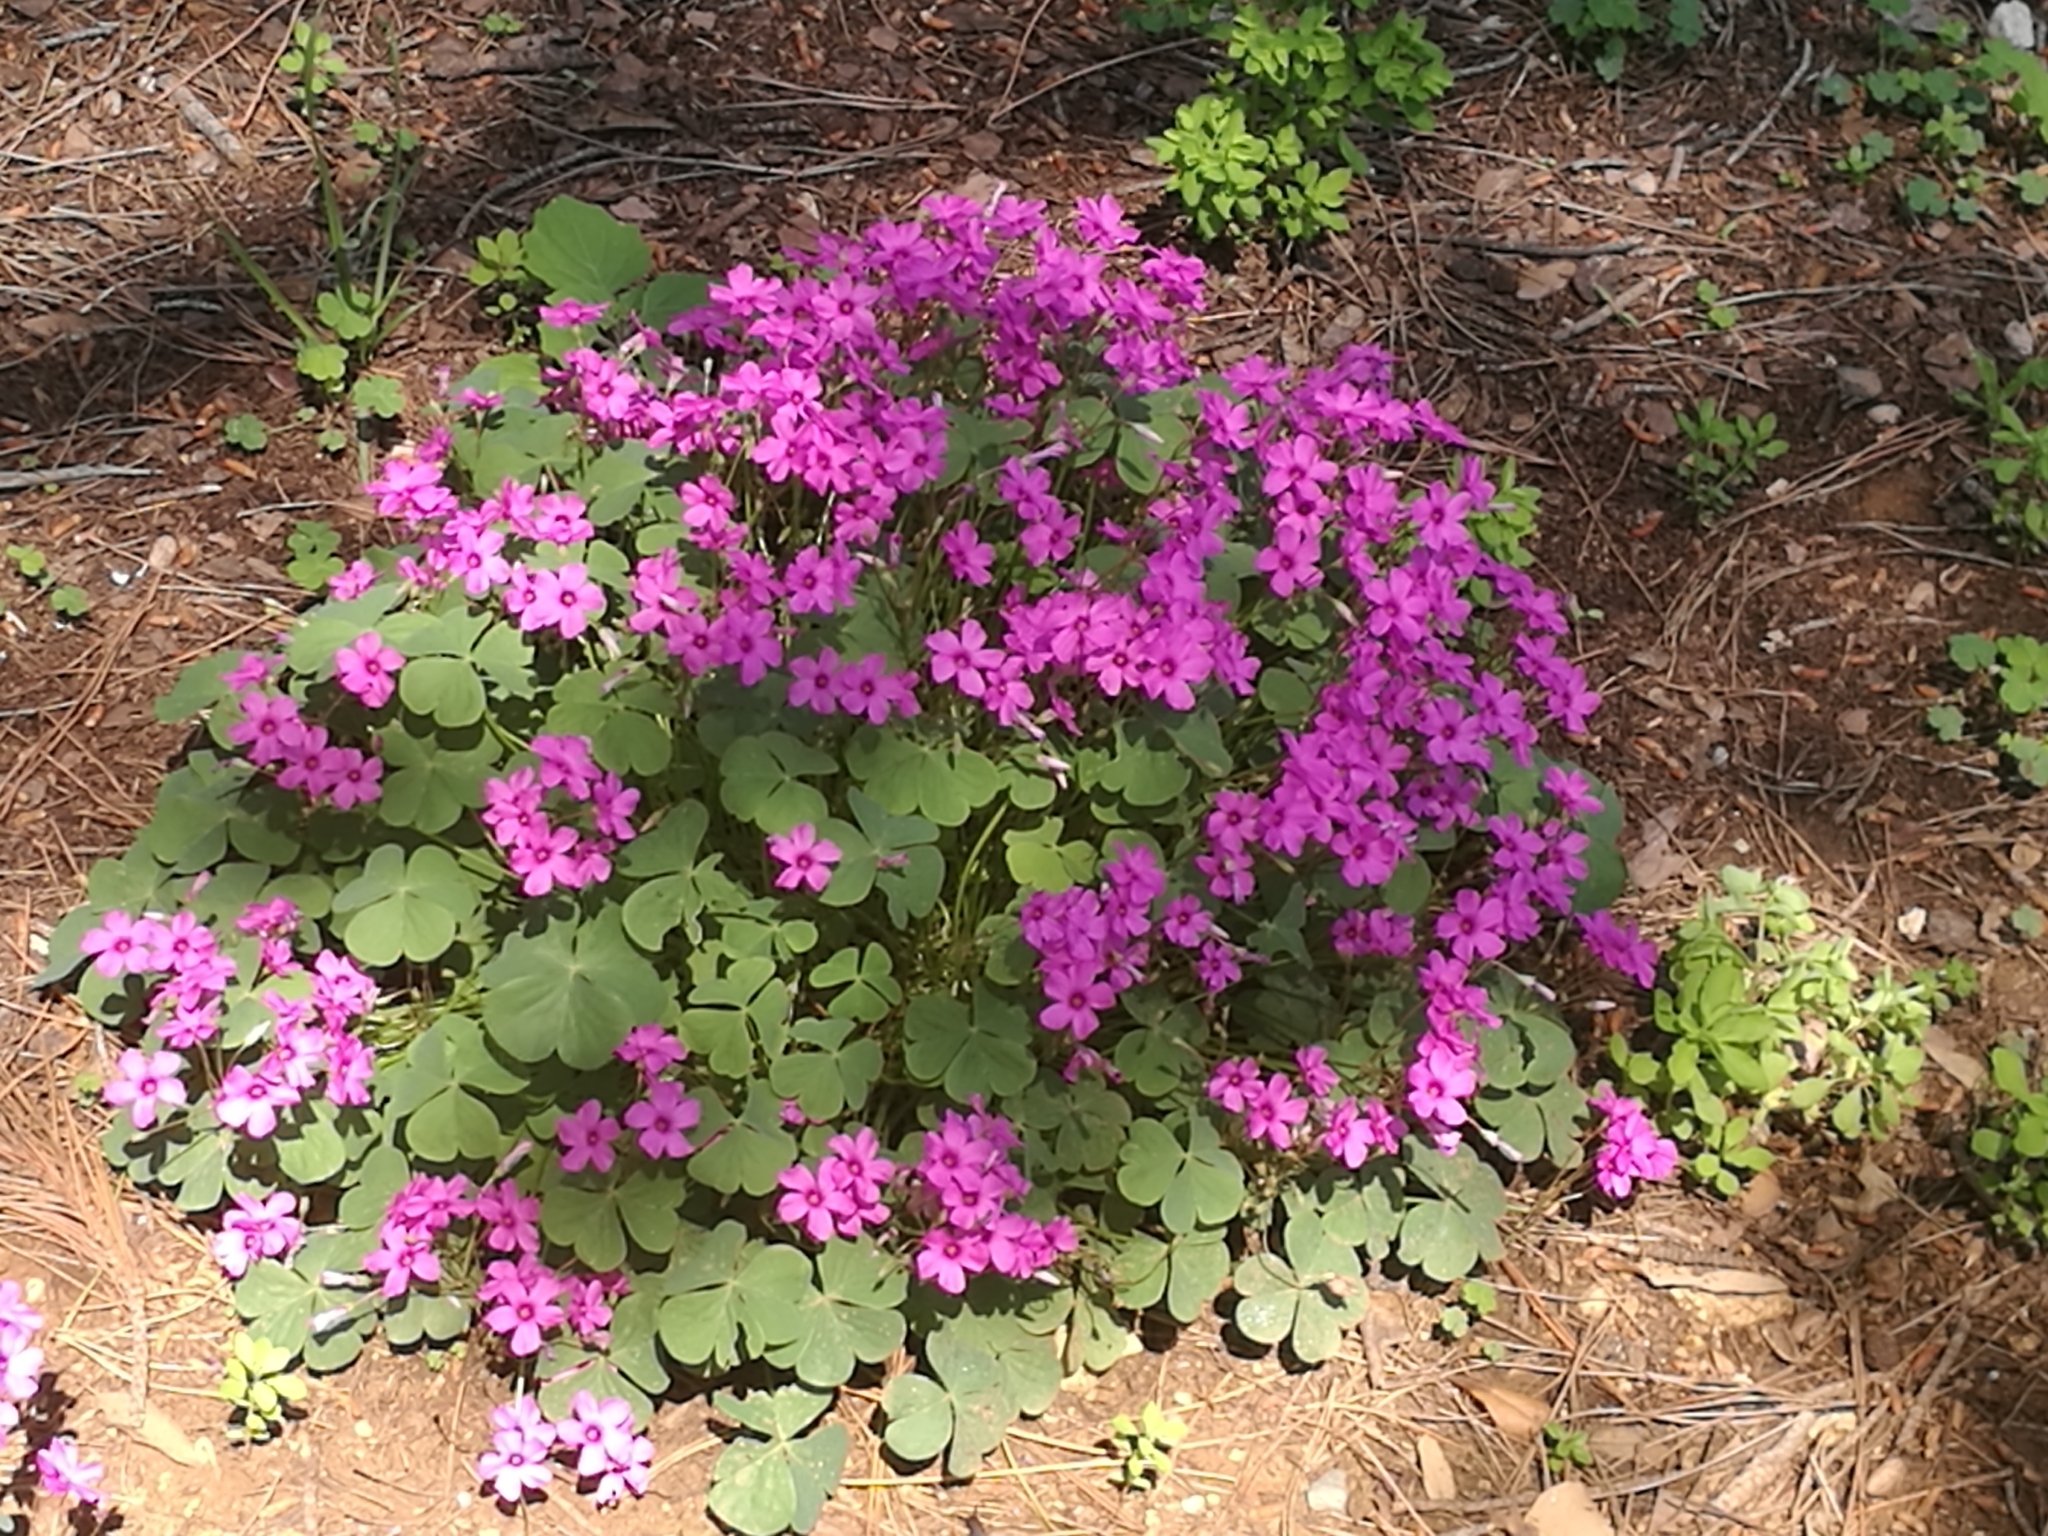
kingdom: Plantae
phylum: Tracheophyta
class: Magnoliopsida
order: Oxalidales
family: Oxalidaceae
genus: Oxalis
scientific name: Oxalis articulata
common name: Pink-sorrel
